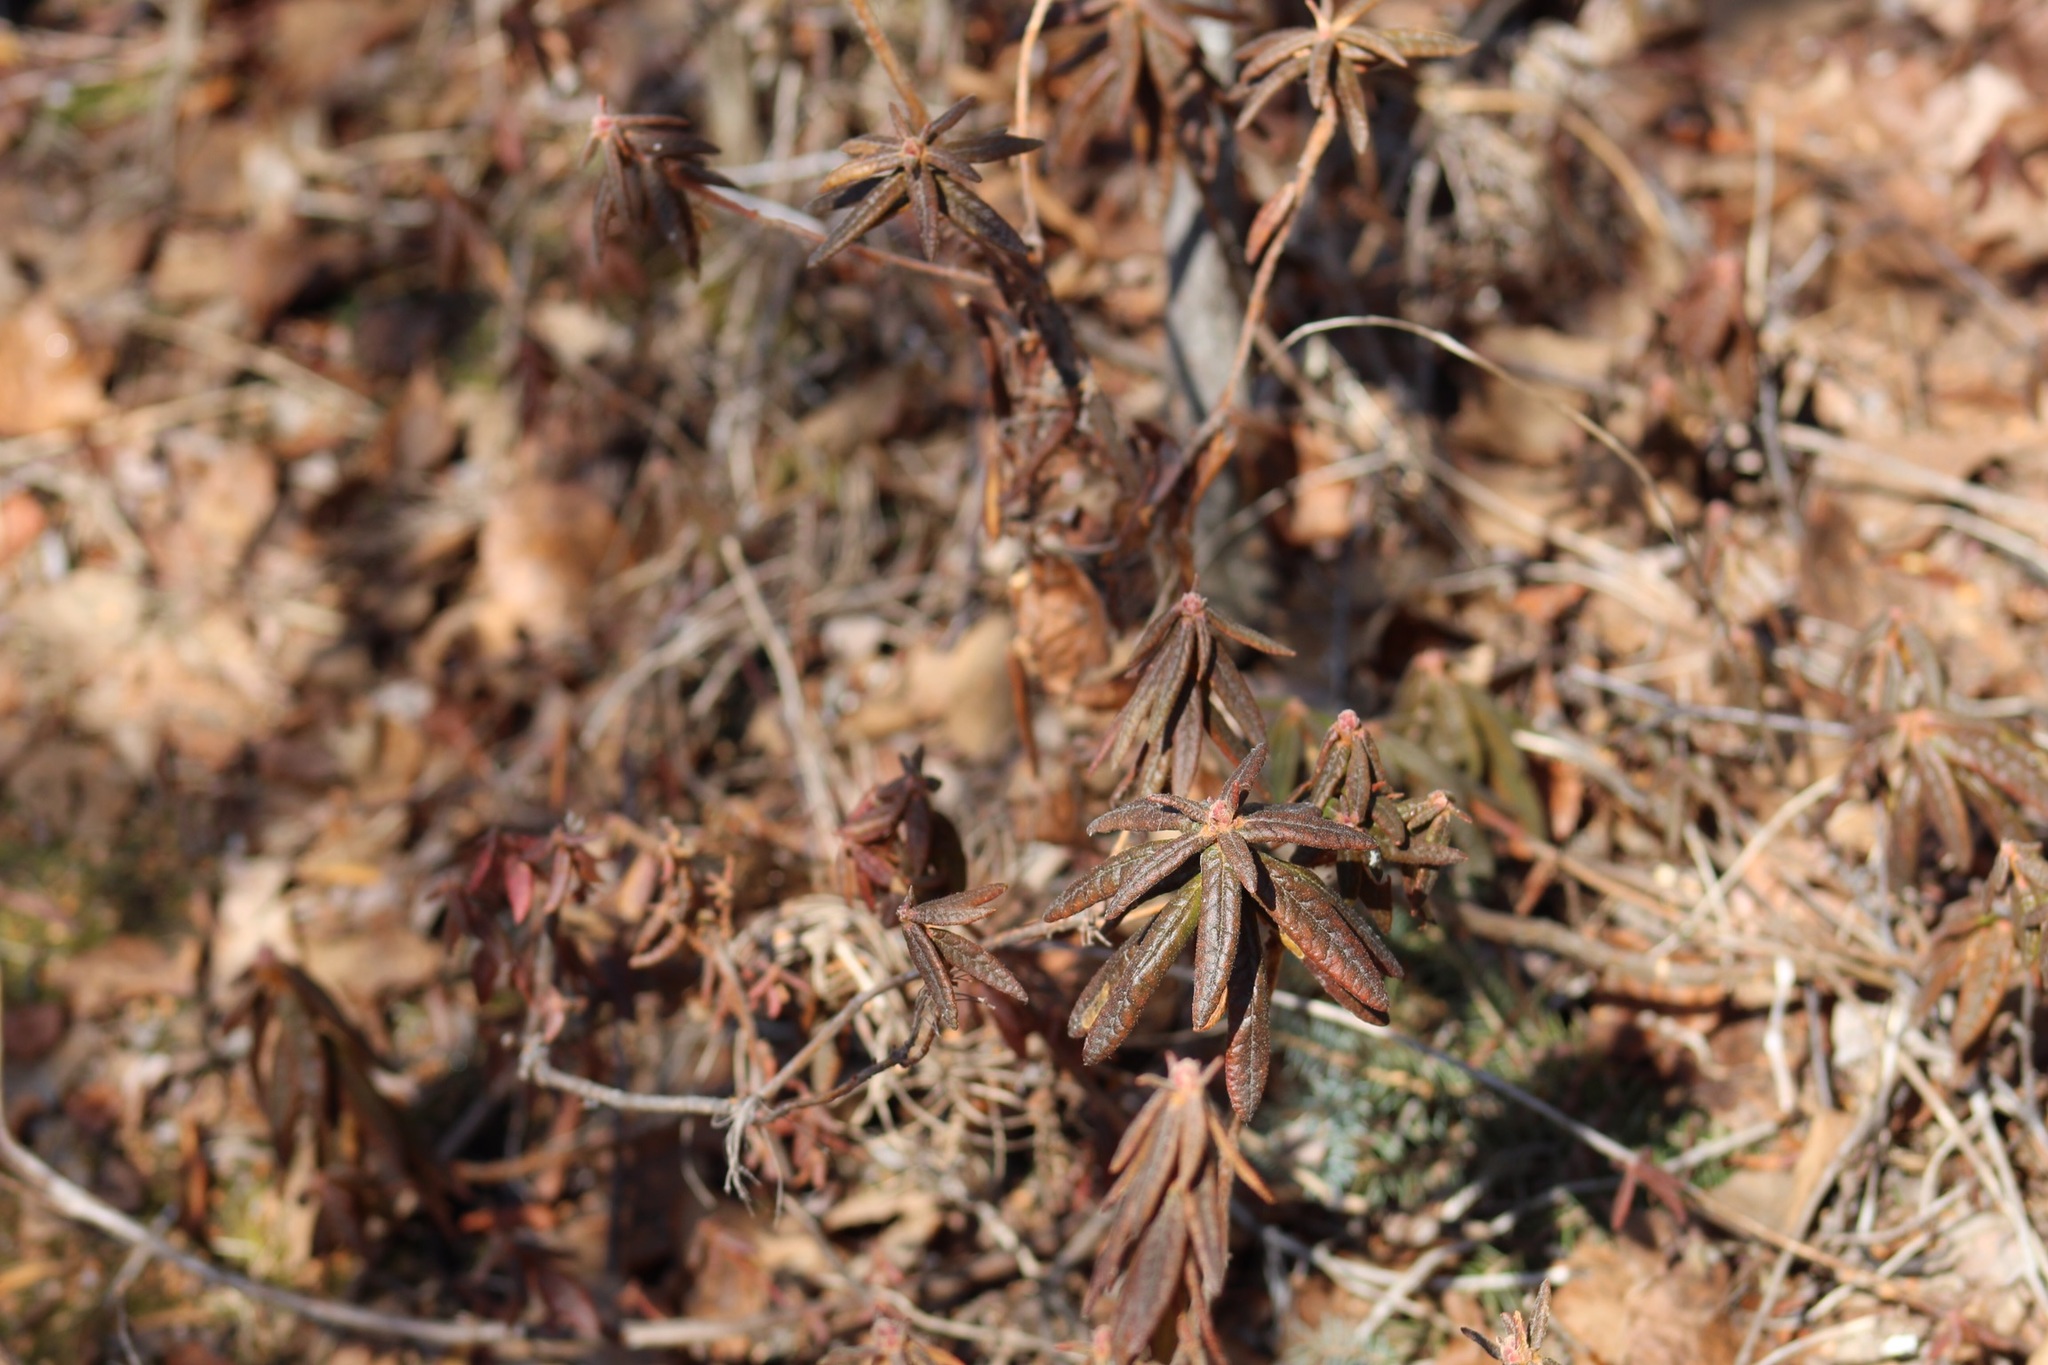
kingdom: Plantae
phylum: Tracheophyta
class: Magnoliopsida
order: Ericales
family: Ericaceae
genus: Rhododendron
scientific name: Rhododendron groenlandicum
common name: Bog labrador tea
